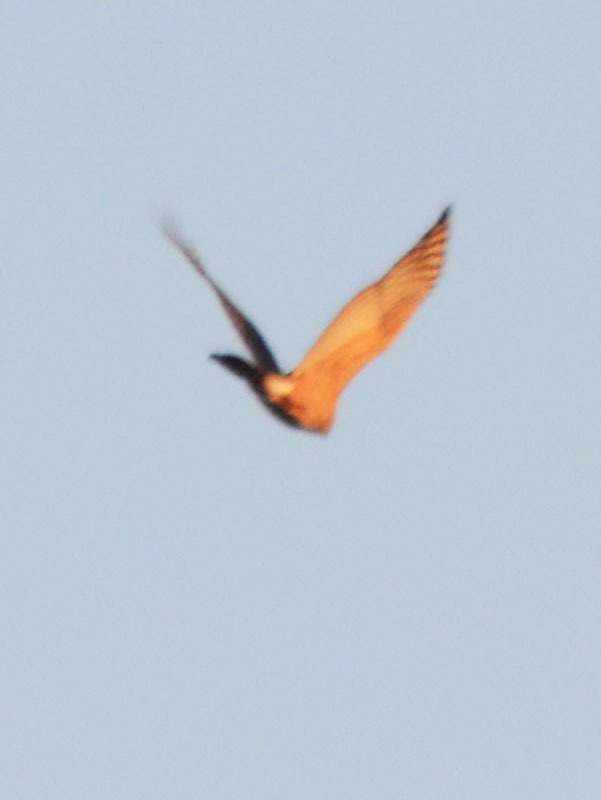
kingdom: Animalia
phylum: Chordata
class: Aves
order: Accipitriformes
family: Accipitridae
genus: Accipiter
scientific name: Accipiter
